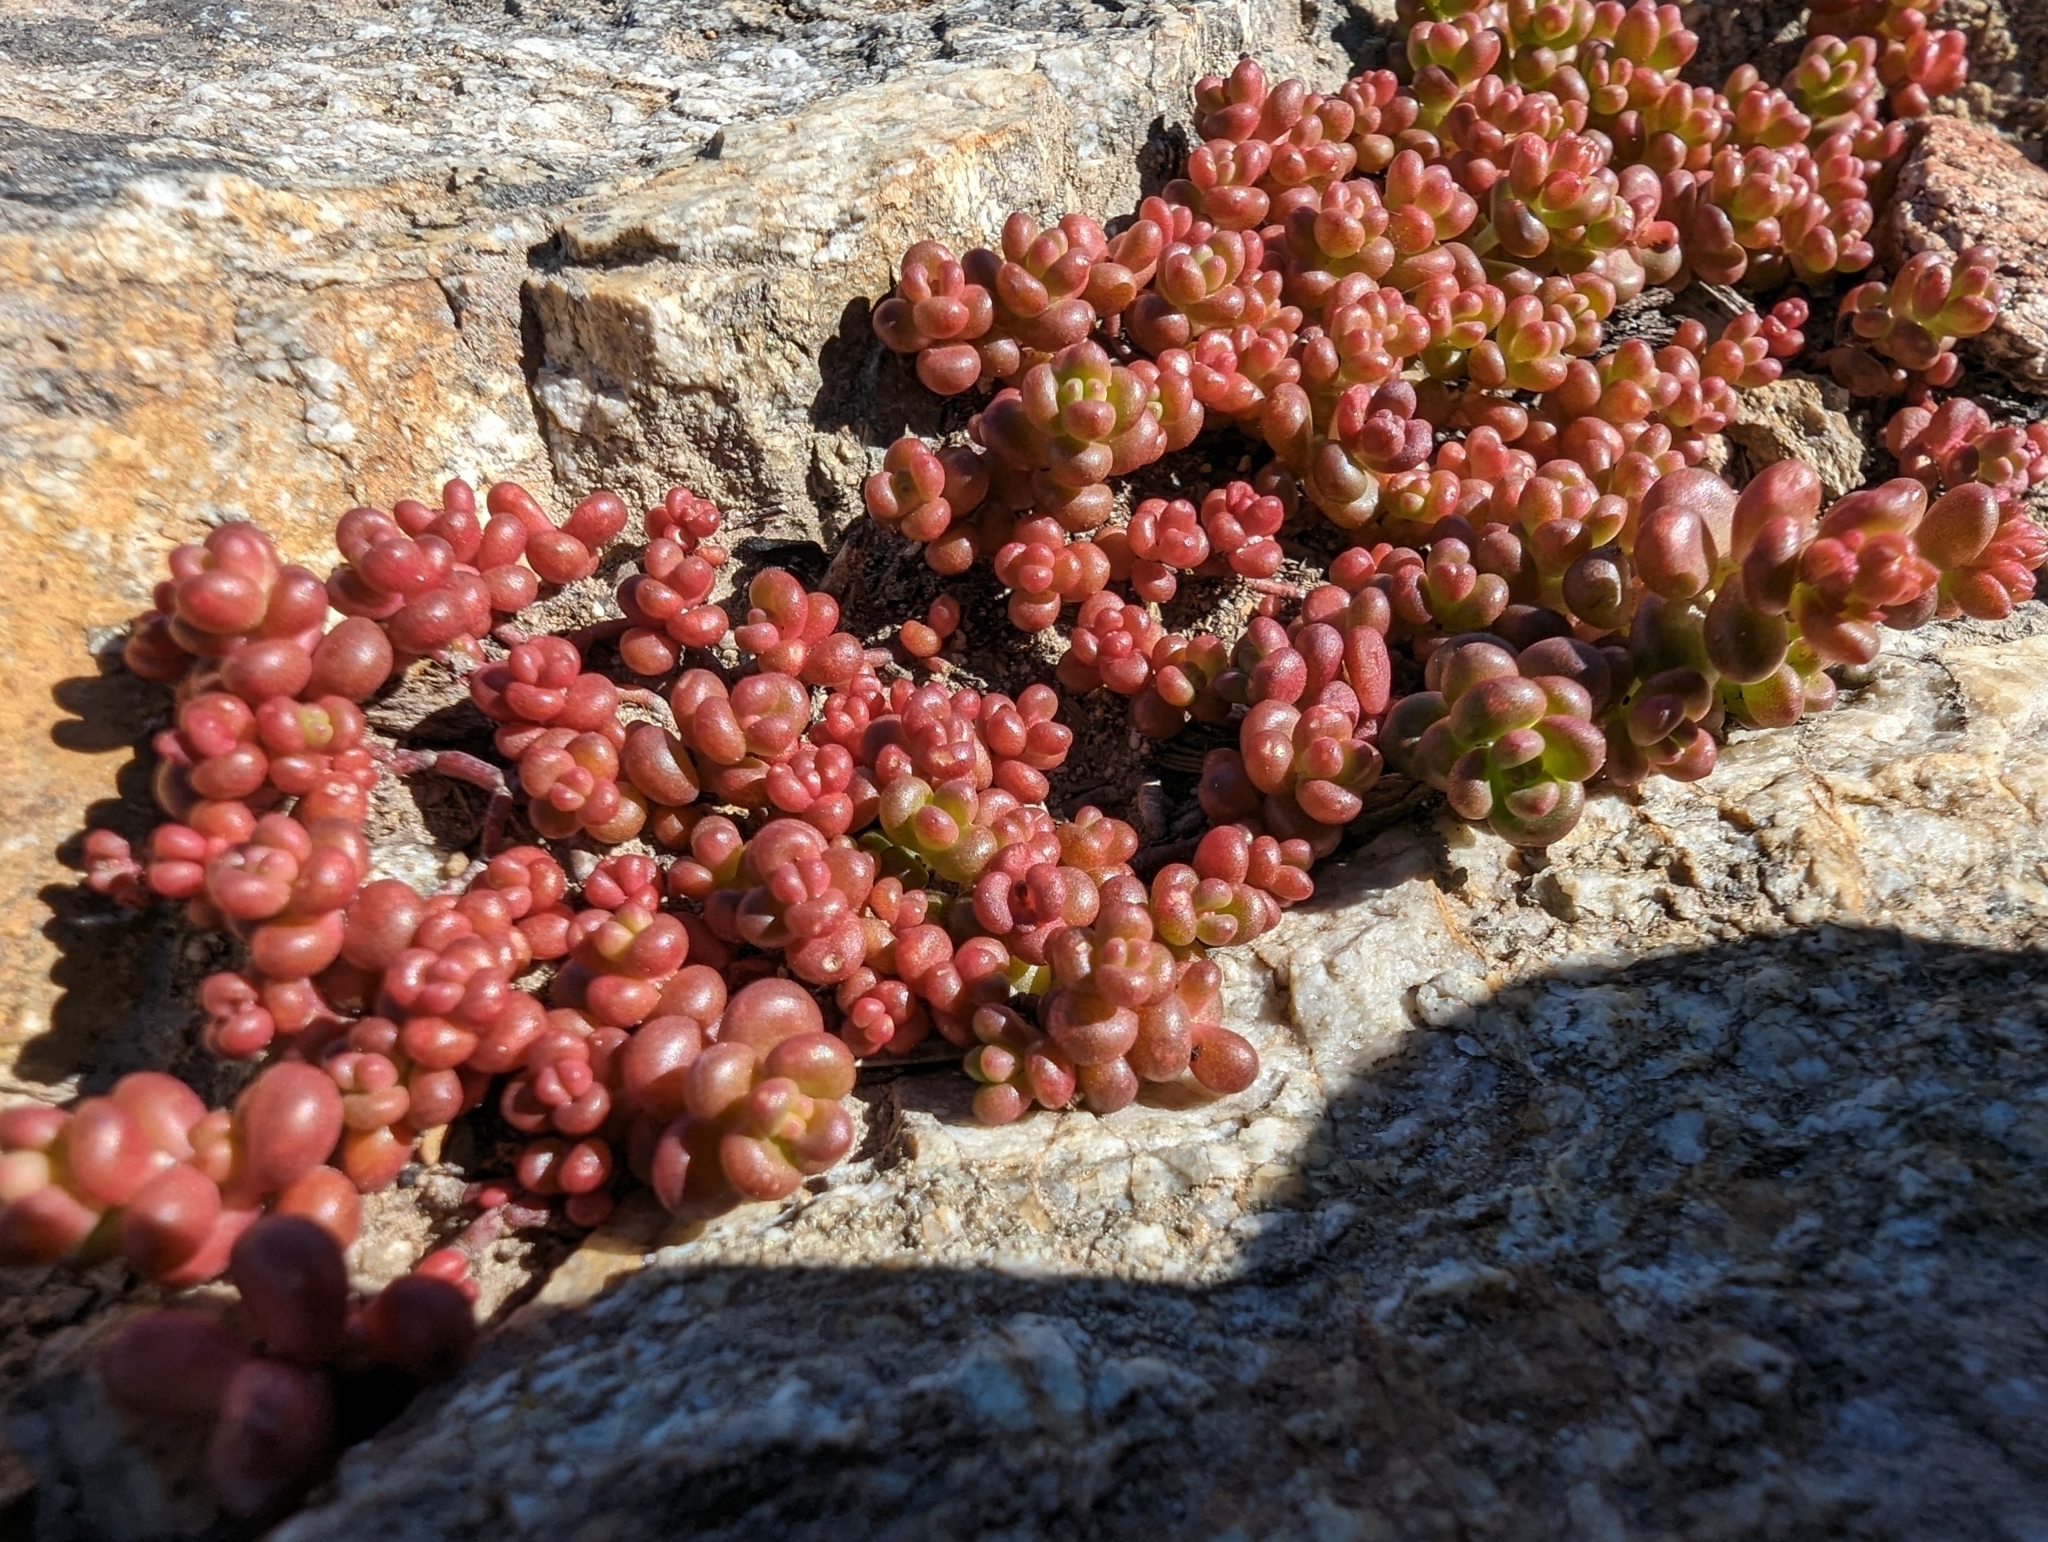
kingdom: Plantae
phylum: Tracheophyta
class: Magnoliopsida
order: Saxifragales
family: Crassulaceae
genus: Sedum
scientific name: Sedum divergens
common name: Cascade stonecrop
